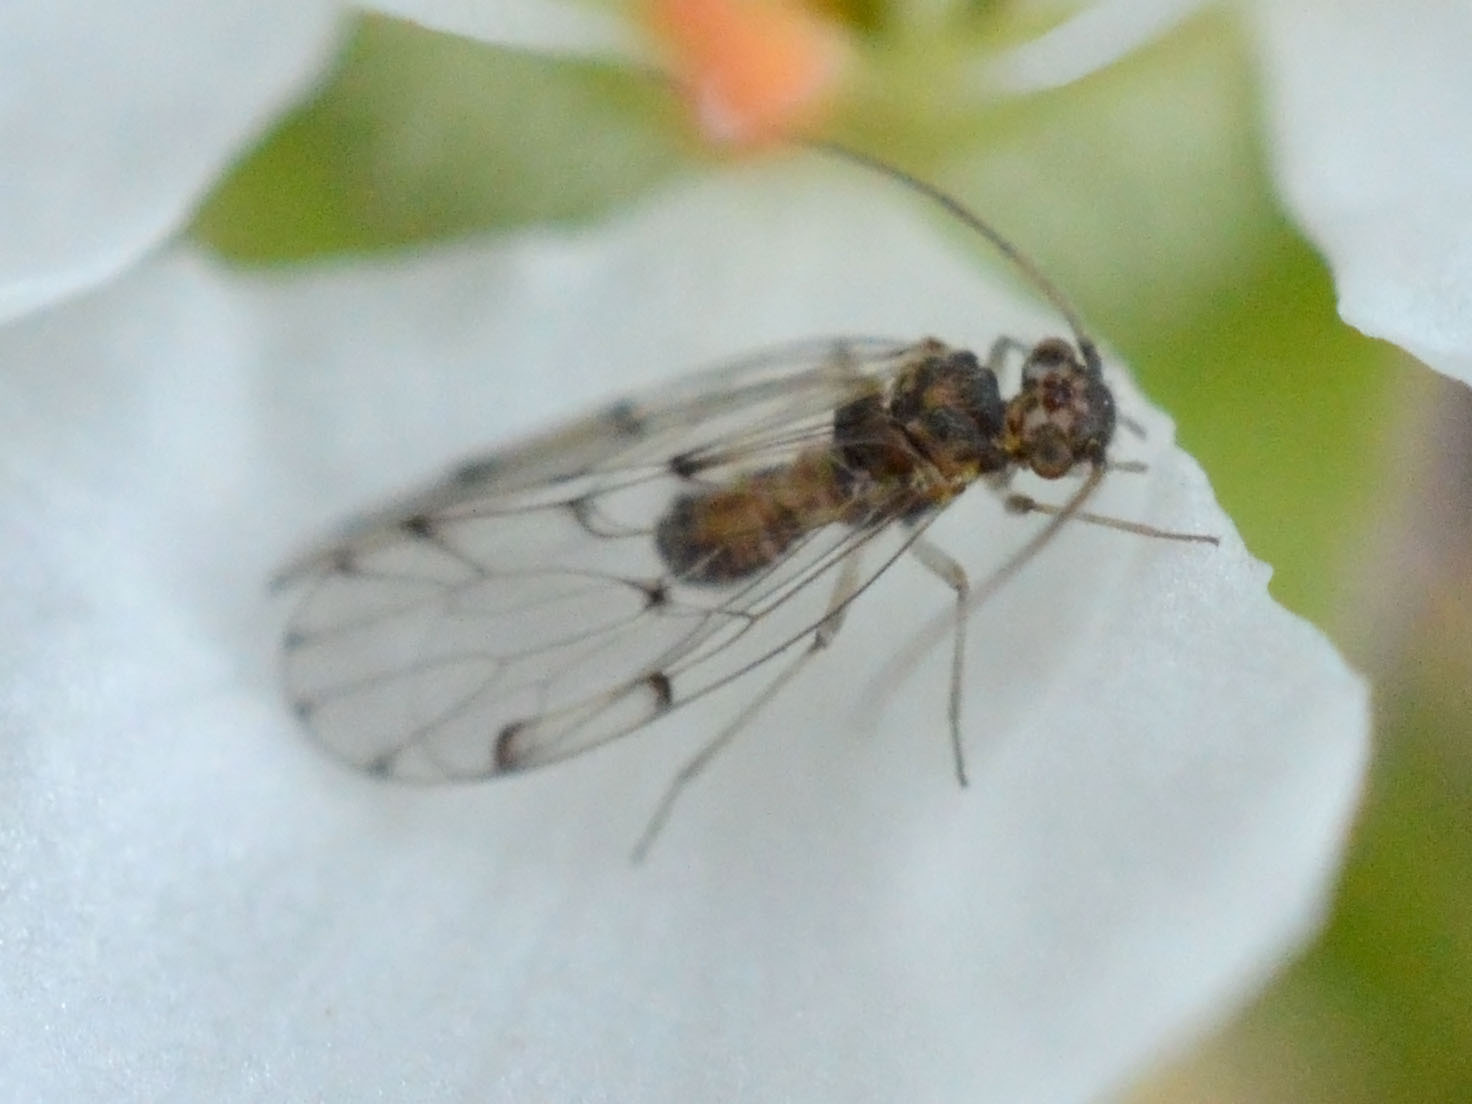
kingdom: Animalia
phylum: Arthropoda
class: Insecta
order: Psocodea
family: Ectopsocidae
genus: Ectopsocus
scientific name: Ectopsocus petersi
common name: Medium-sized bark louse
